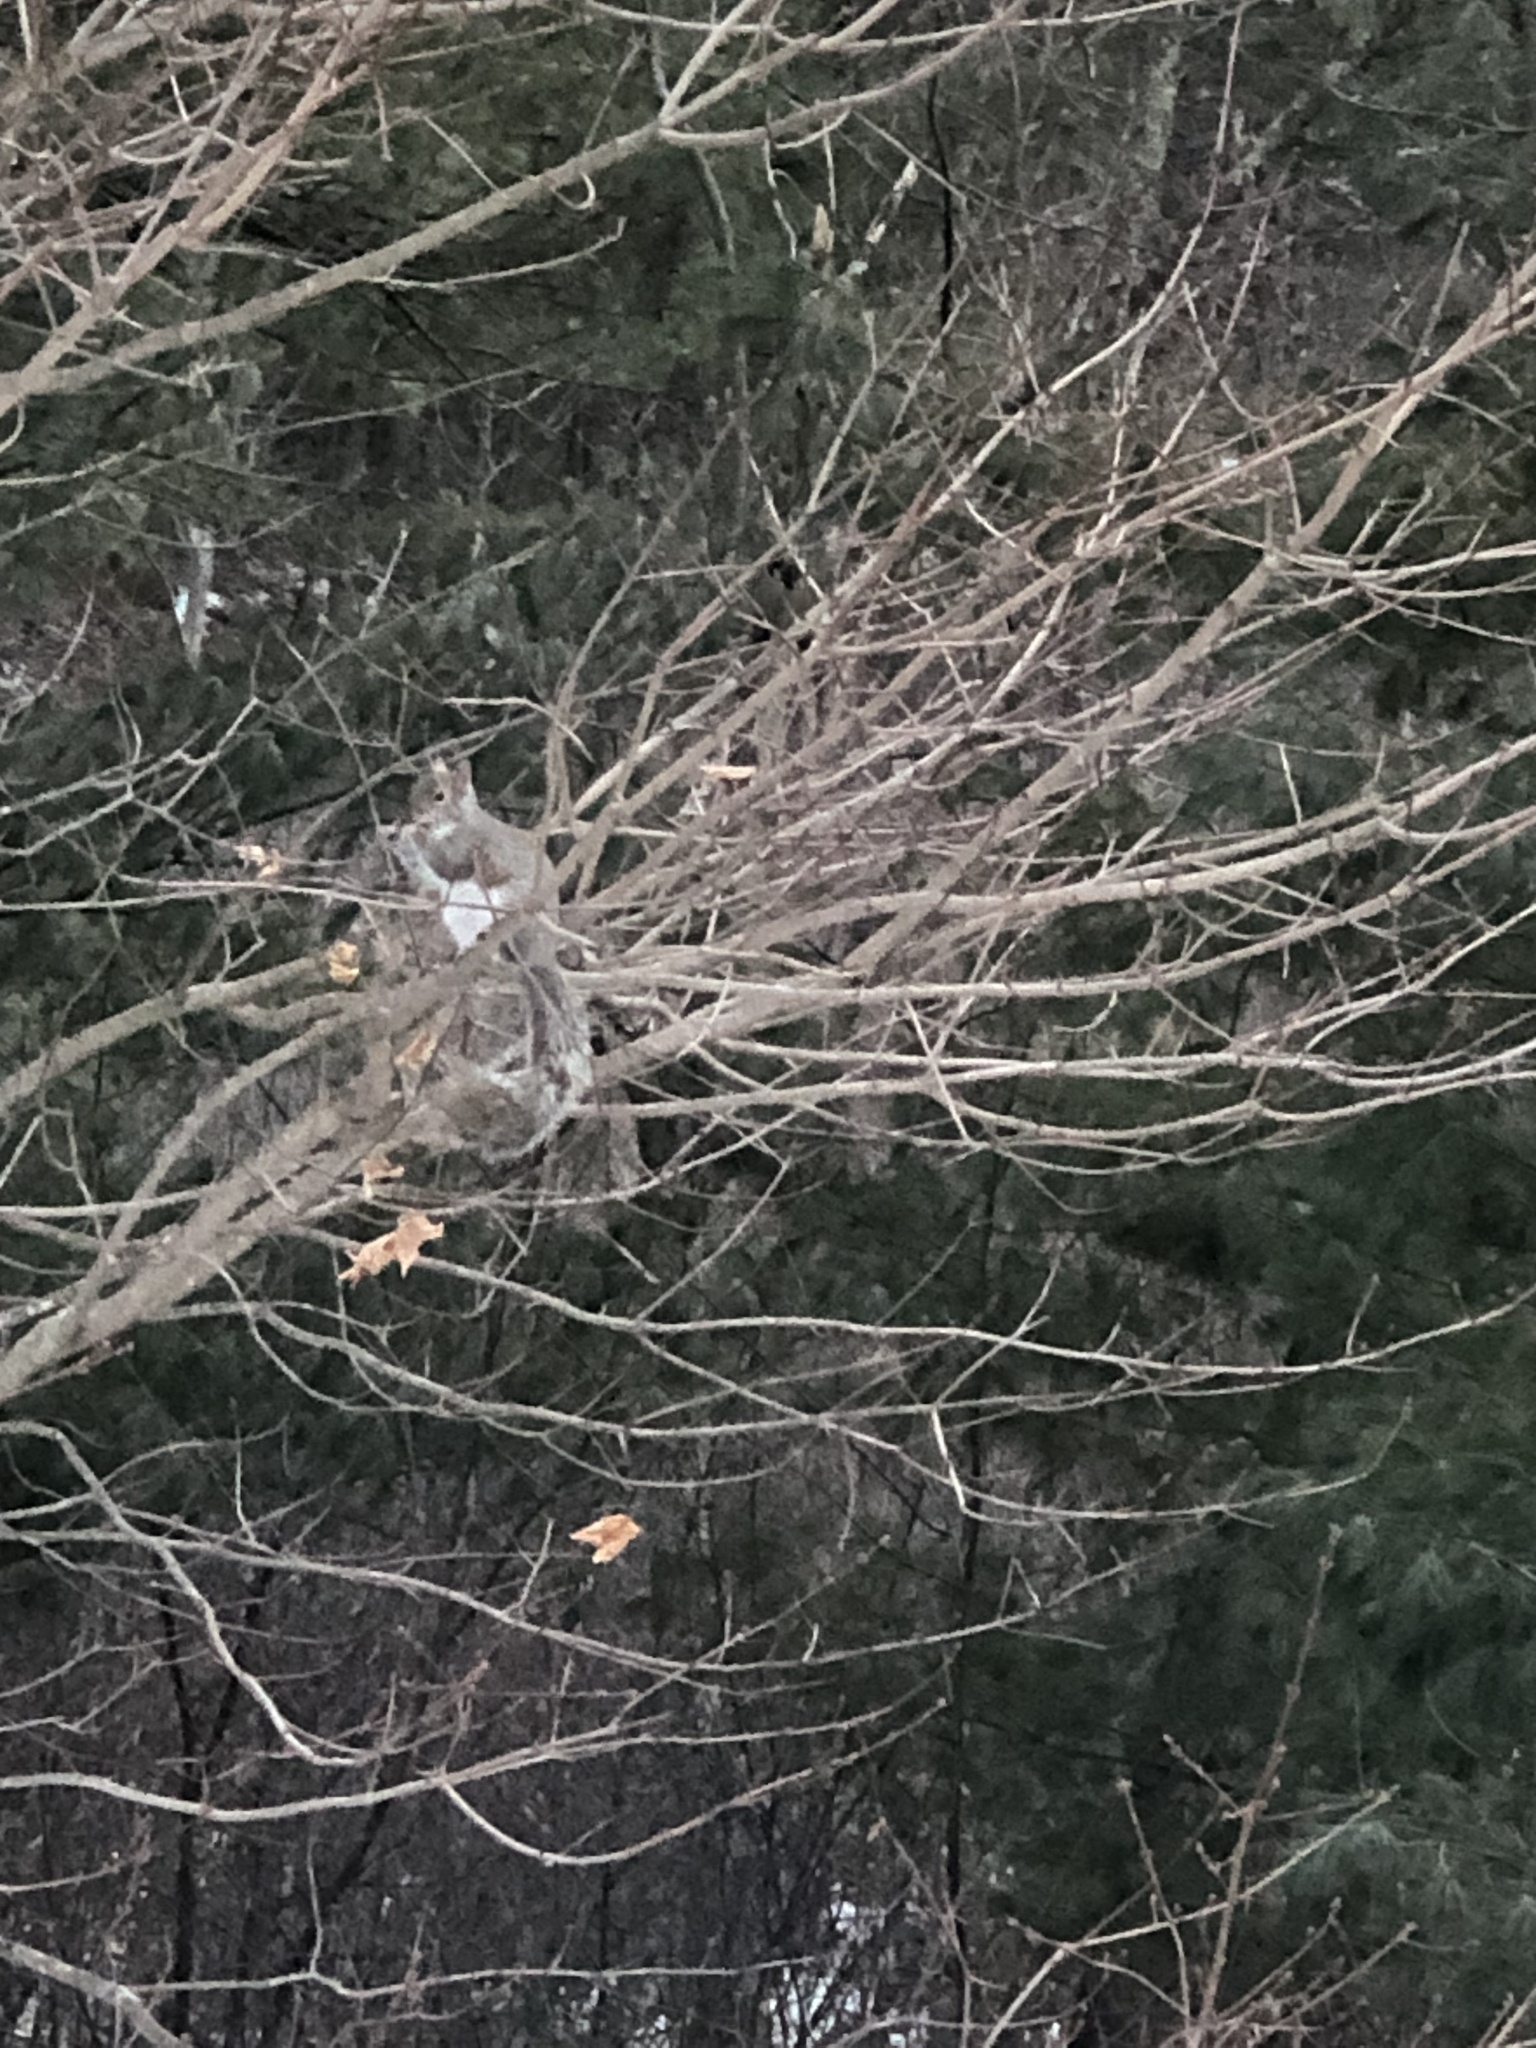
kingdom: Animalia
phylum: Chordata
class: Mammalia
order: Rodentia
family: Sciuridae
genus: Sciurus
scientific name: Sciurus carolinensis
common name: Eastern gray squirrel
